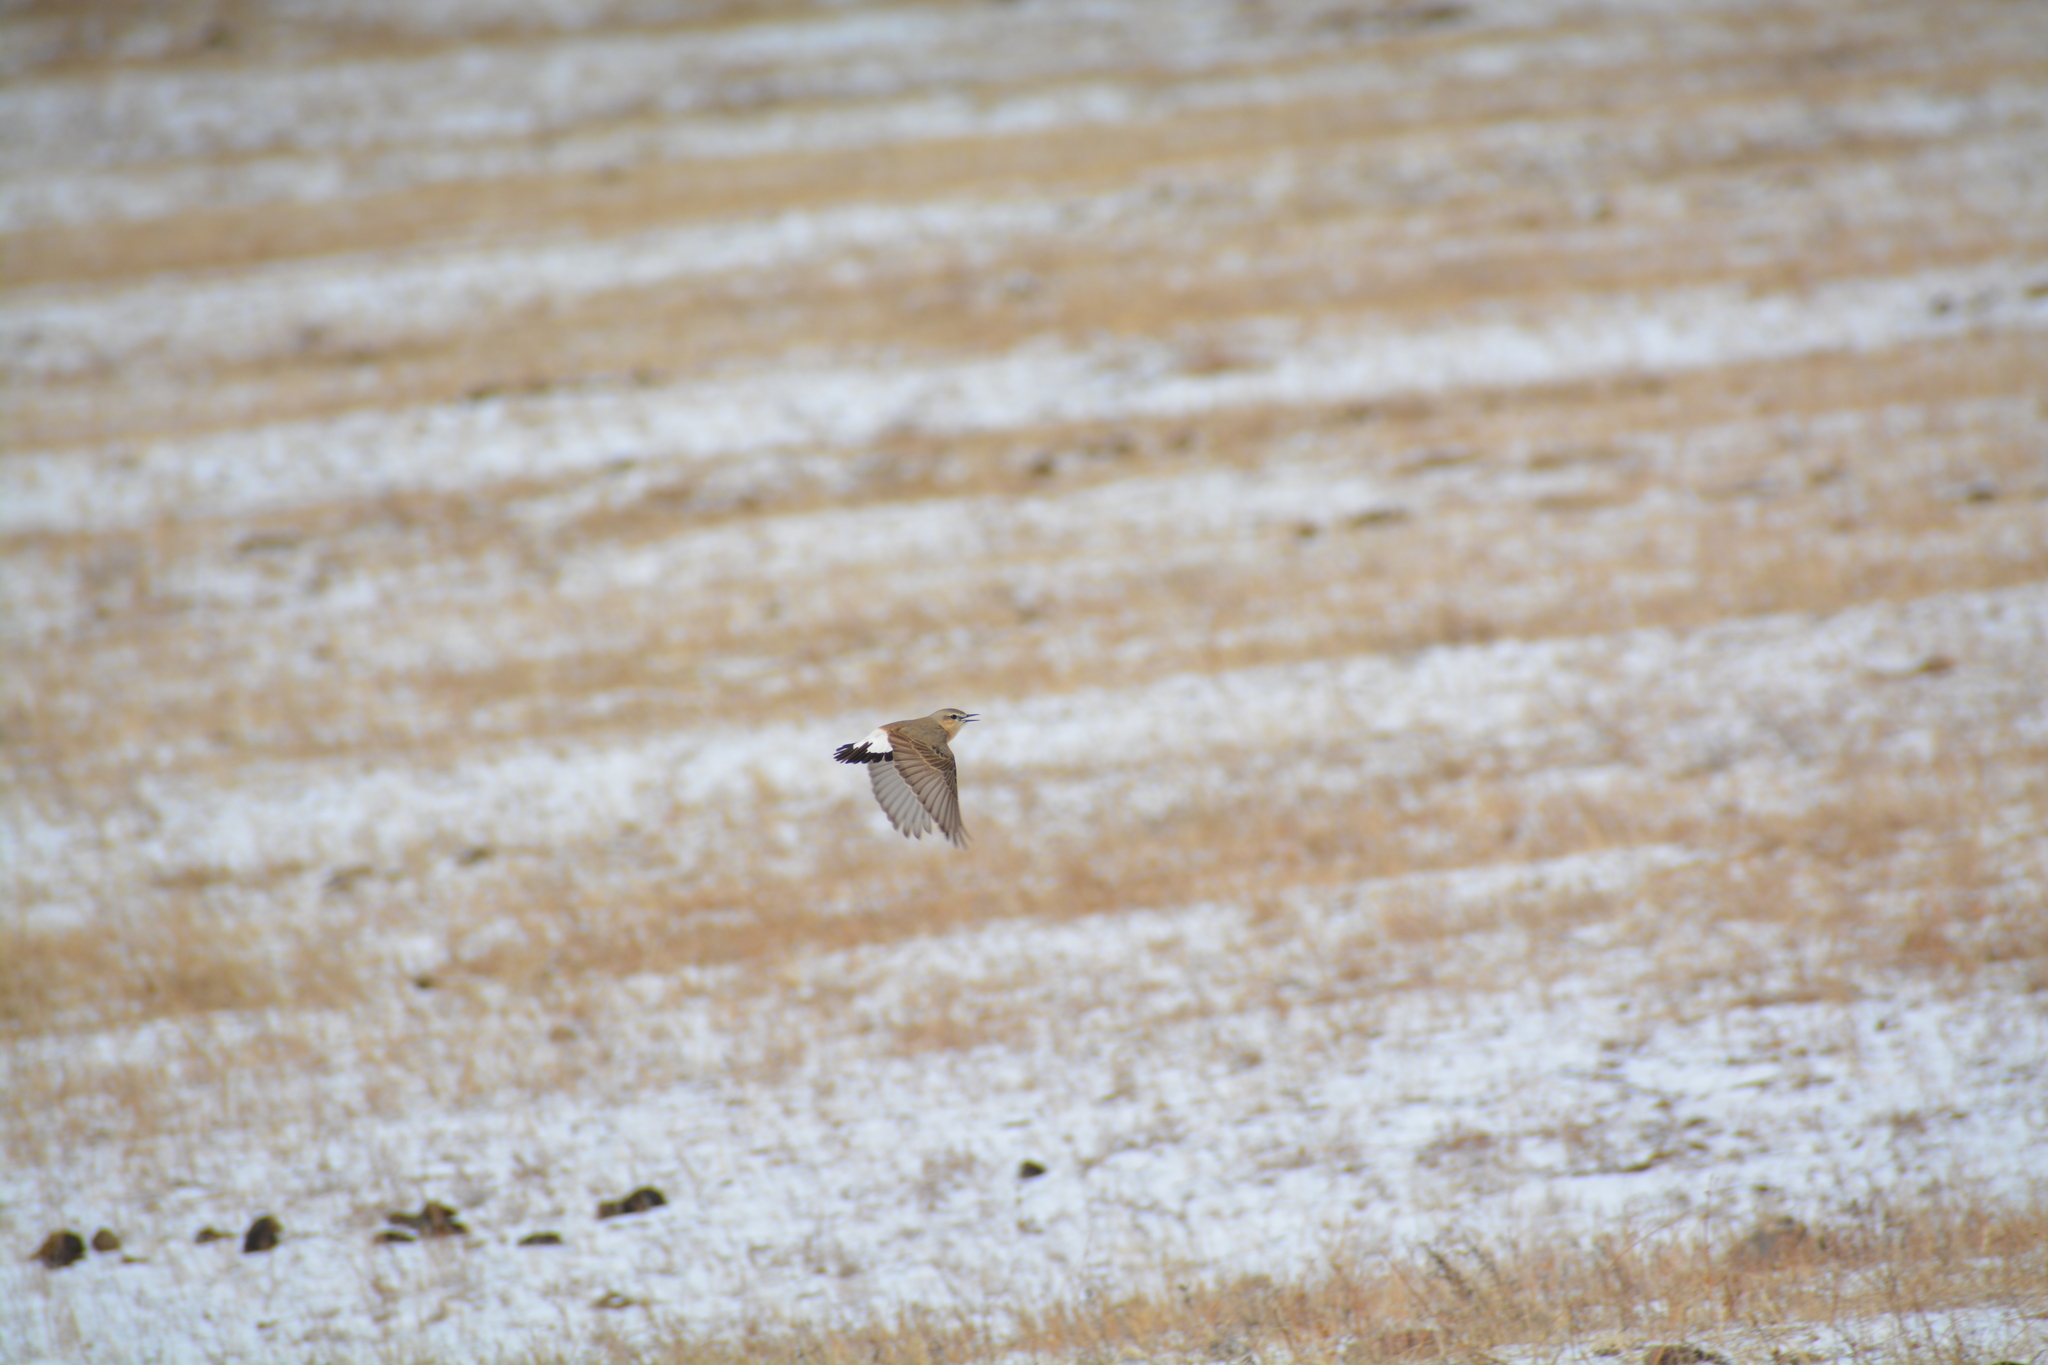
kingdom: Animalia
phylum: Chordata
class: Aves
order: Passeriformes
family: Muscicapidae
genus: Oenanthe
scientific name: Oenanthe isabellina
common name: Isabelline wheatear
